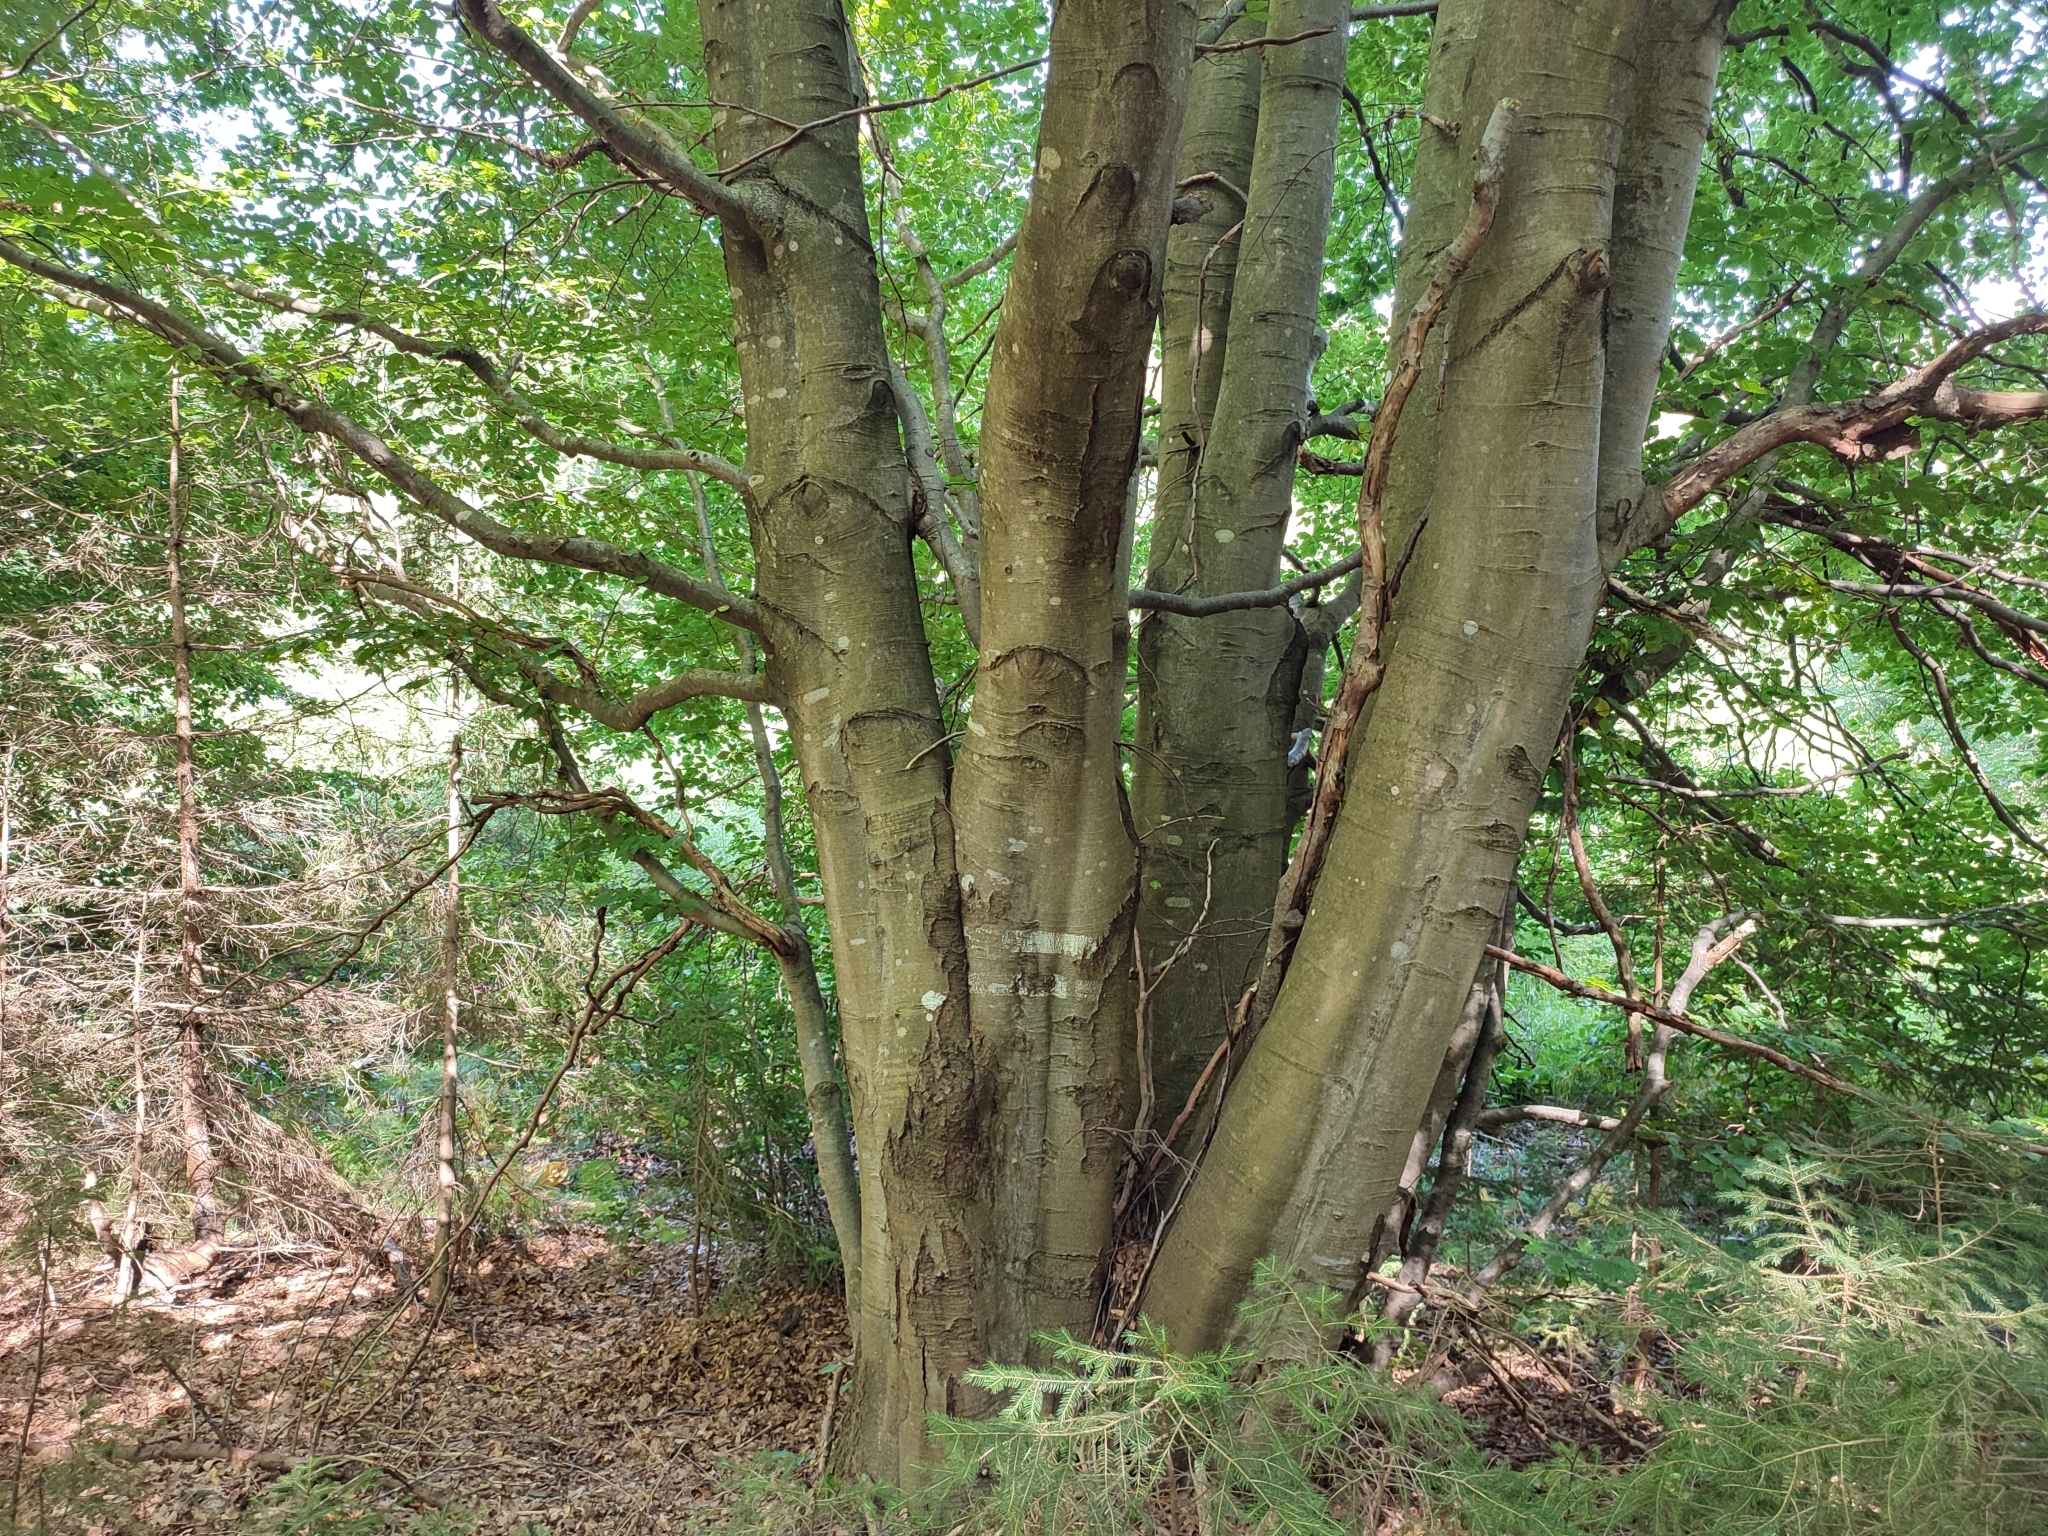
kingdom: Plantae
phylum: Tracheophyta
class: Magnoliopsida
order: Fagales
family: Fagaceae
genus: Fagus
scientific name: Fagus sylvatica
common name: Beech
